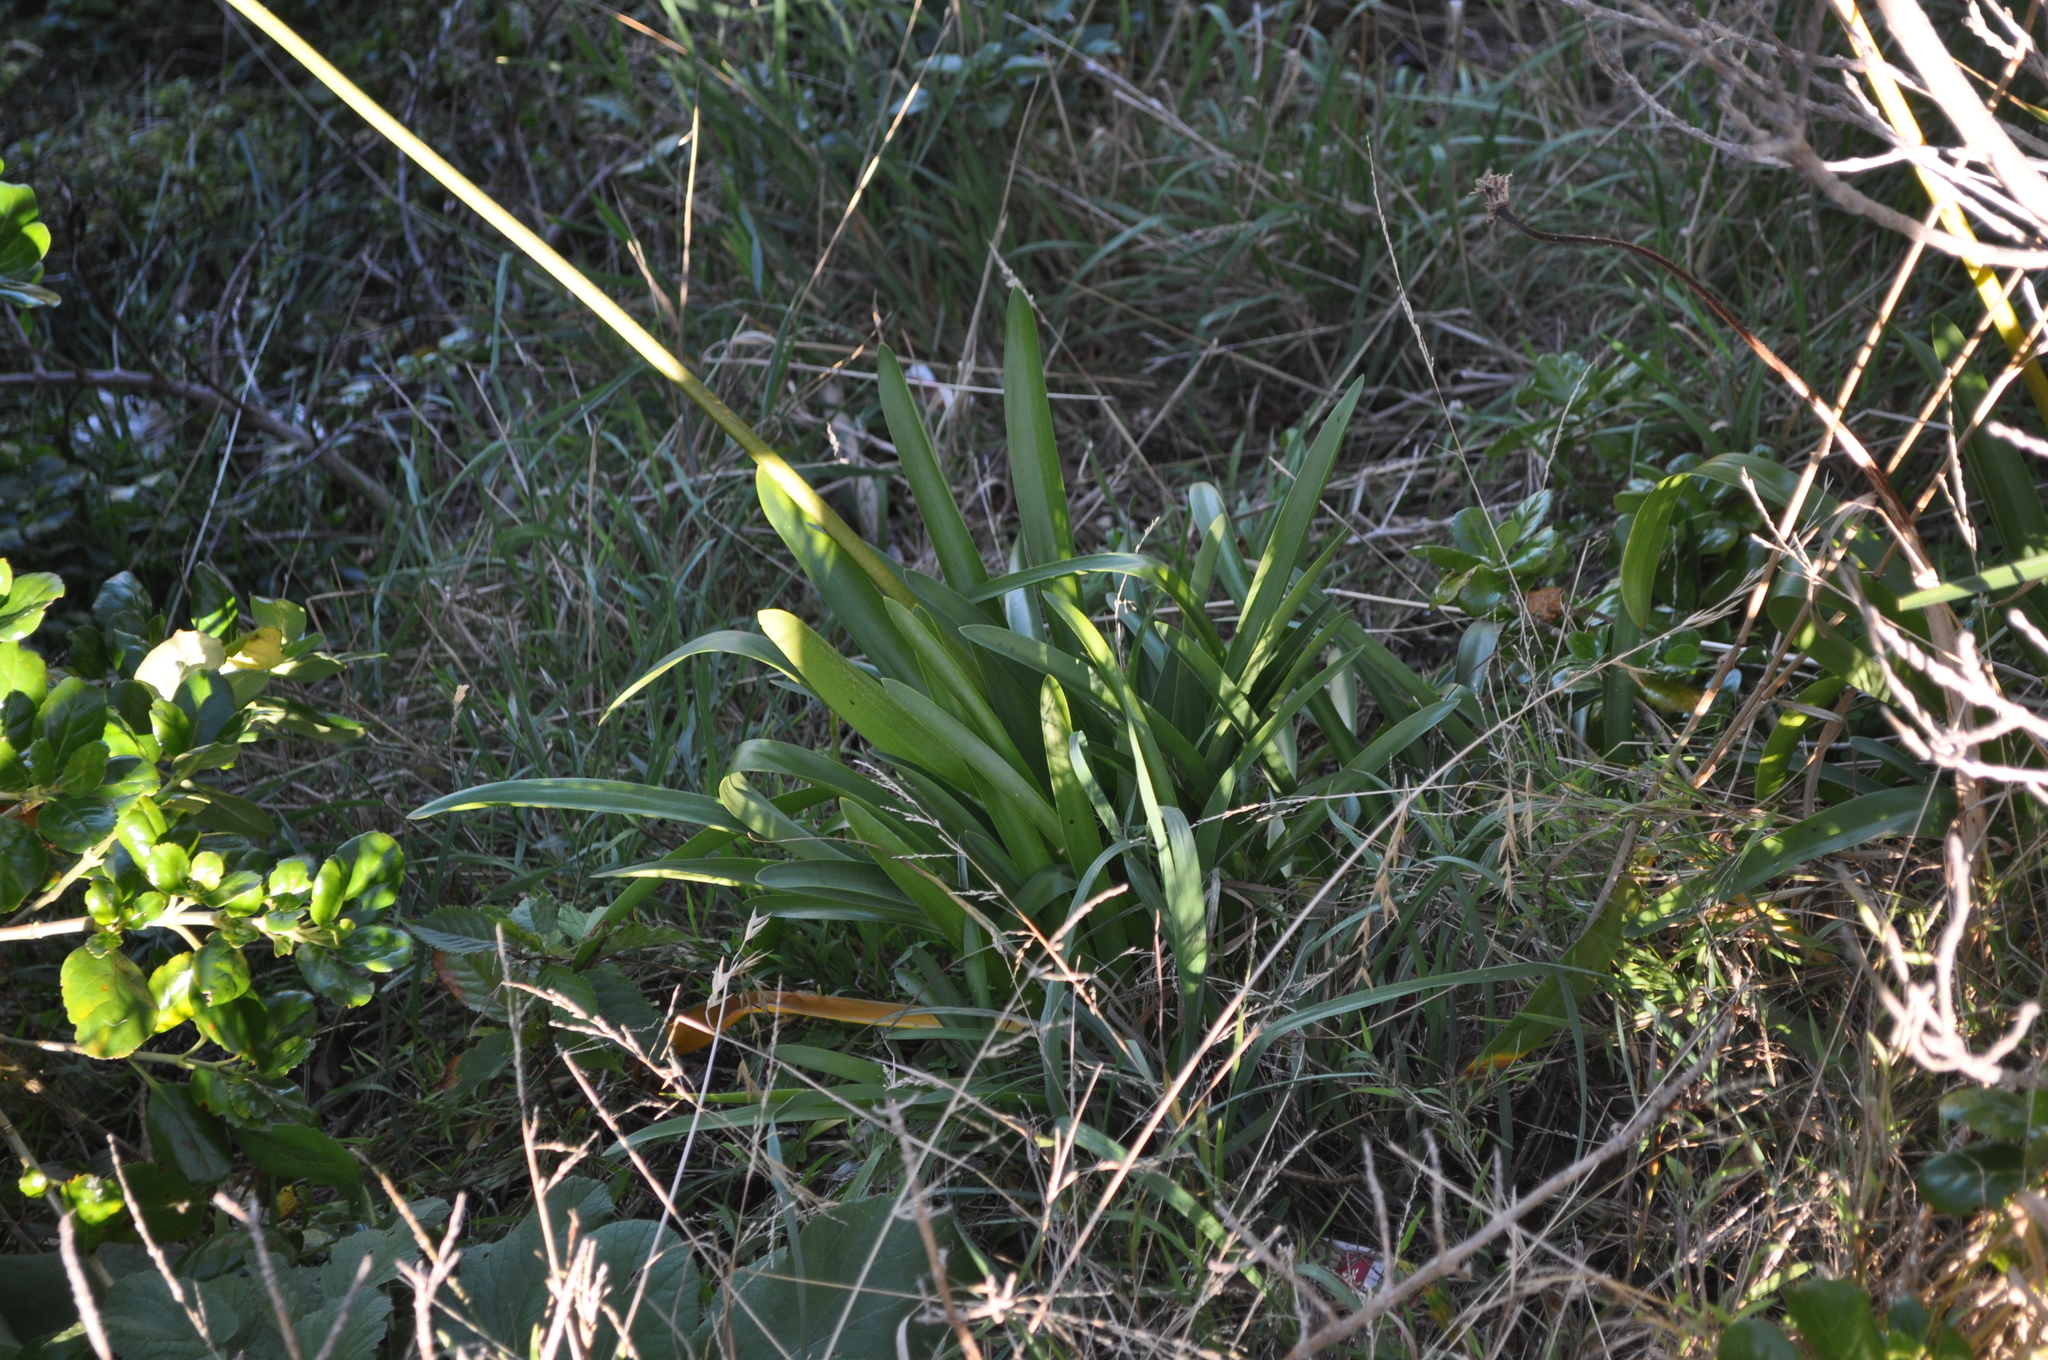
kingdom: Plantae
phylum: Tracheophyta
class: Liliopsida
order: Asparagales
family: Amaryllidaceae
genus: Agapanthus
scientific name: Agapanthus praecox
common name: African-lily
